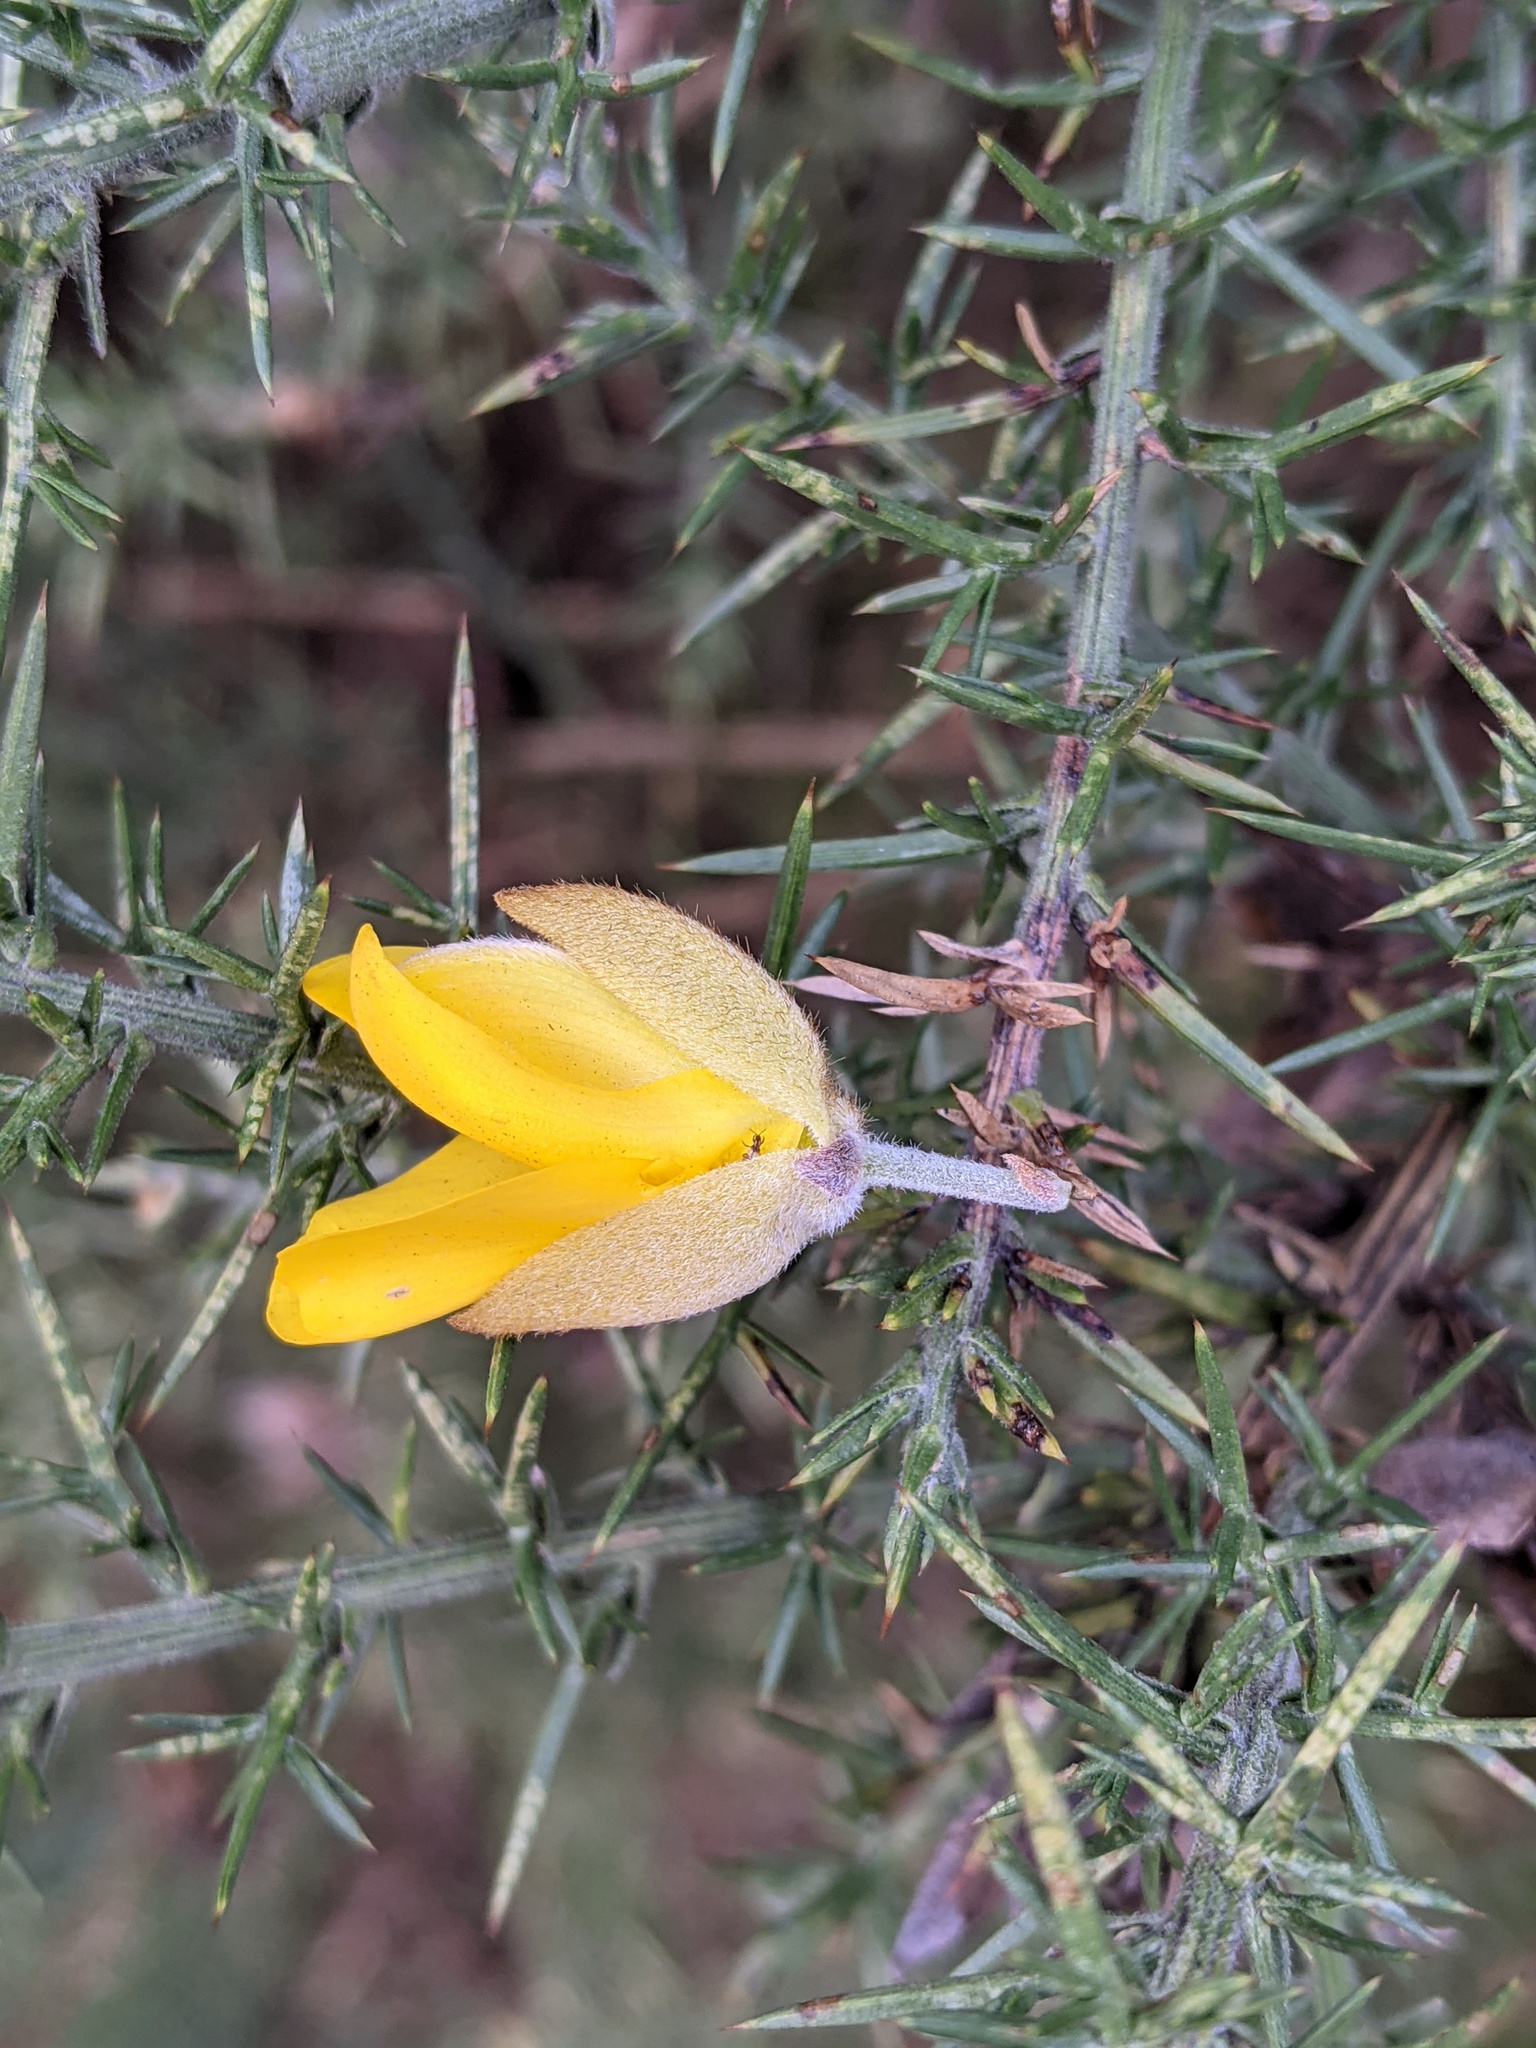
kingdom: Plantae
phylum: Tracheophyta
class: Magnoliopsida
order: Fabales
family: Fabaceae
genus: Ulex
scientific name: Ulex europaeus
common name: Common gorse
